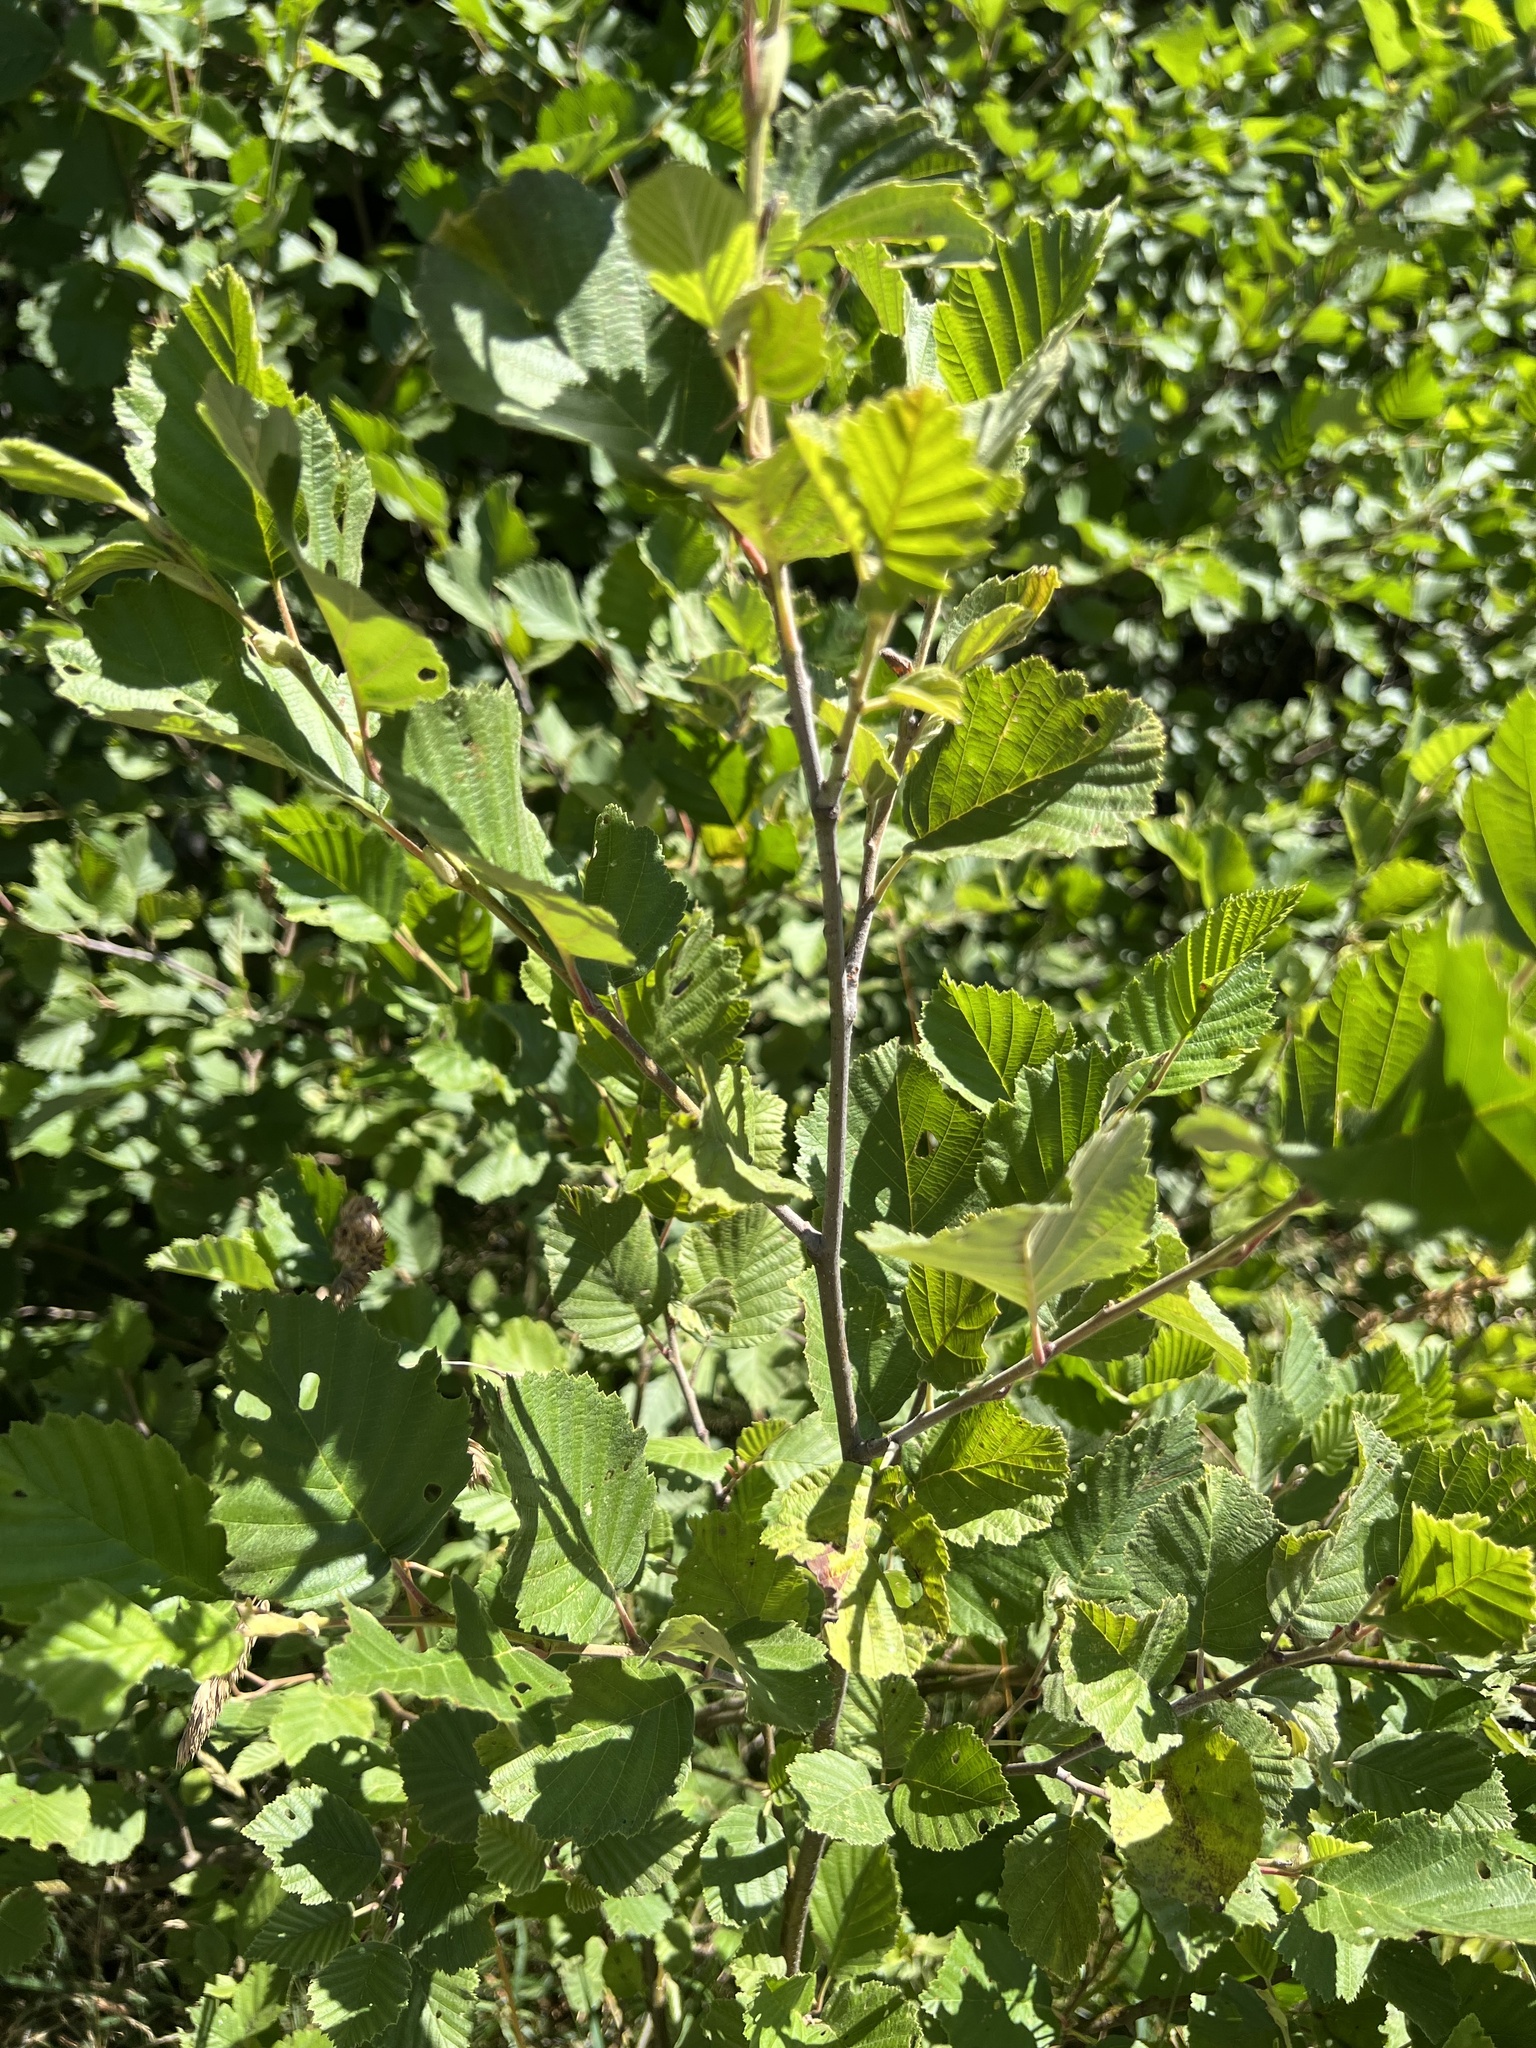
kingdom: Plantae
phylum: Tracheophyta
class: Magnoliopsida
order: Fagales
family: Betulaceae
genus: Alnus
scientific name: Alnus incana
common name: Grey alder
